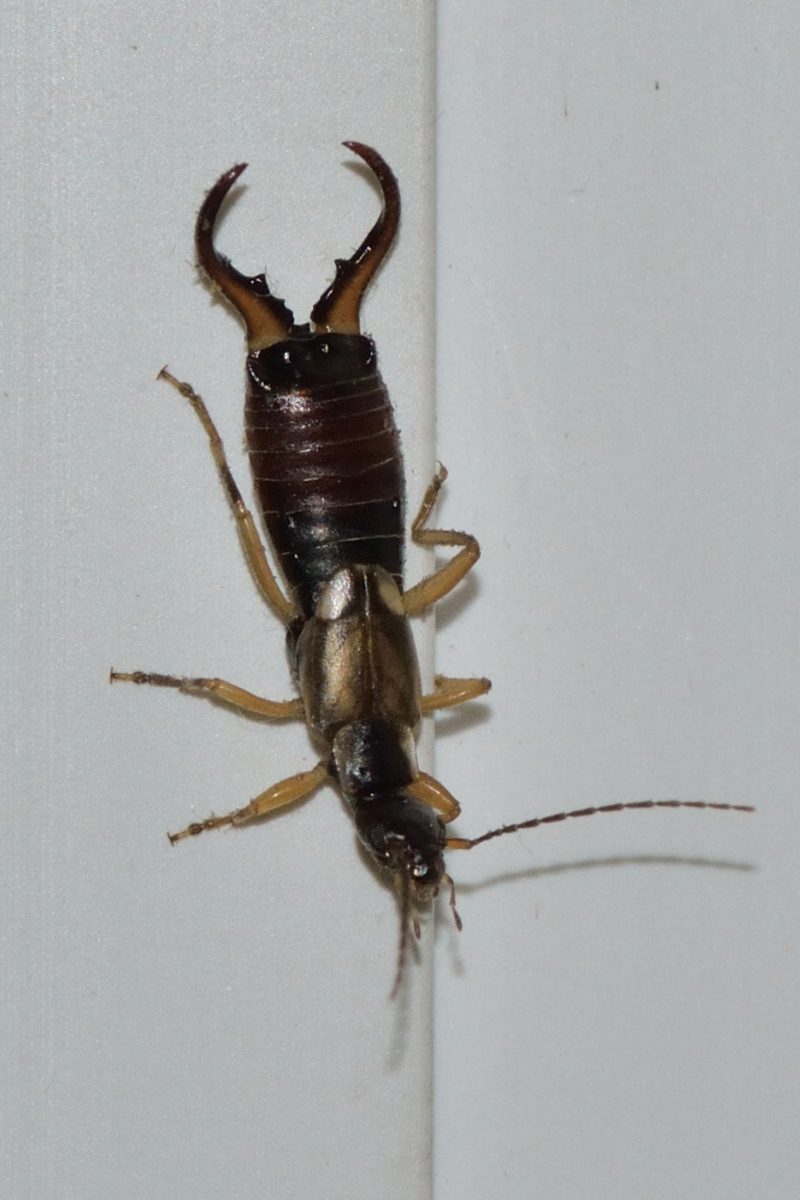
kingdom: Animalia
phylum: Arthropoda
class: Insecta
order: Dermaptera
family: Forficulidae
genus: Forficula
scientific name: Forficula
